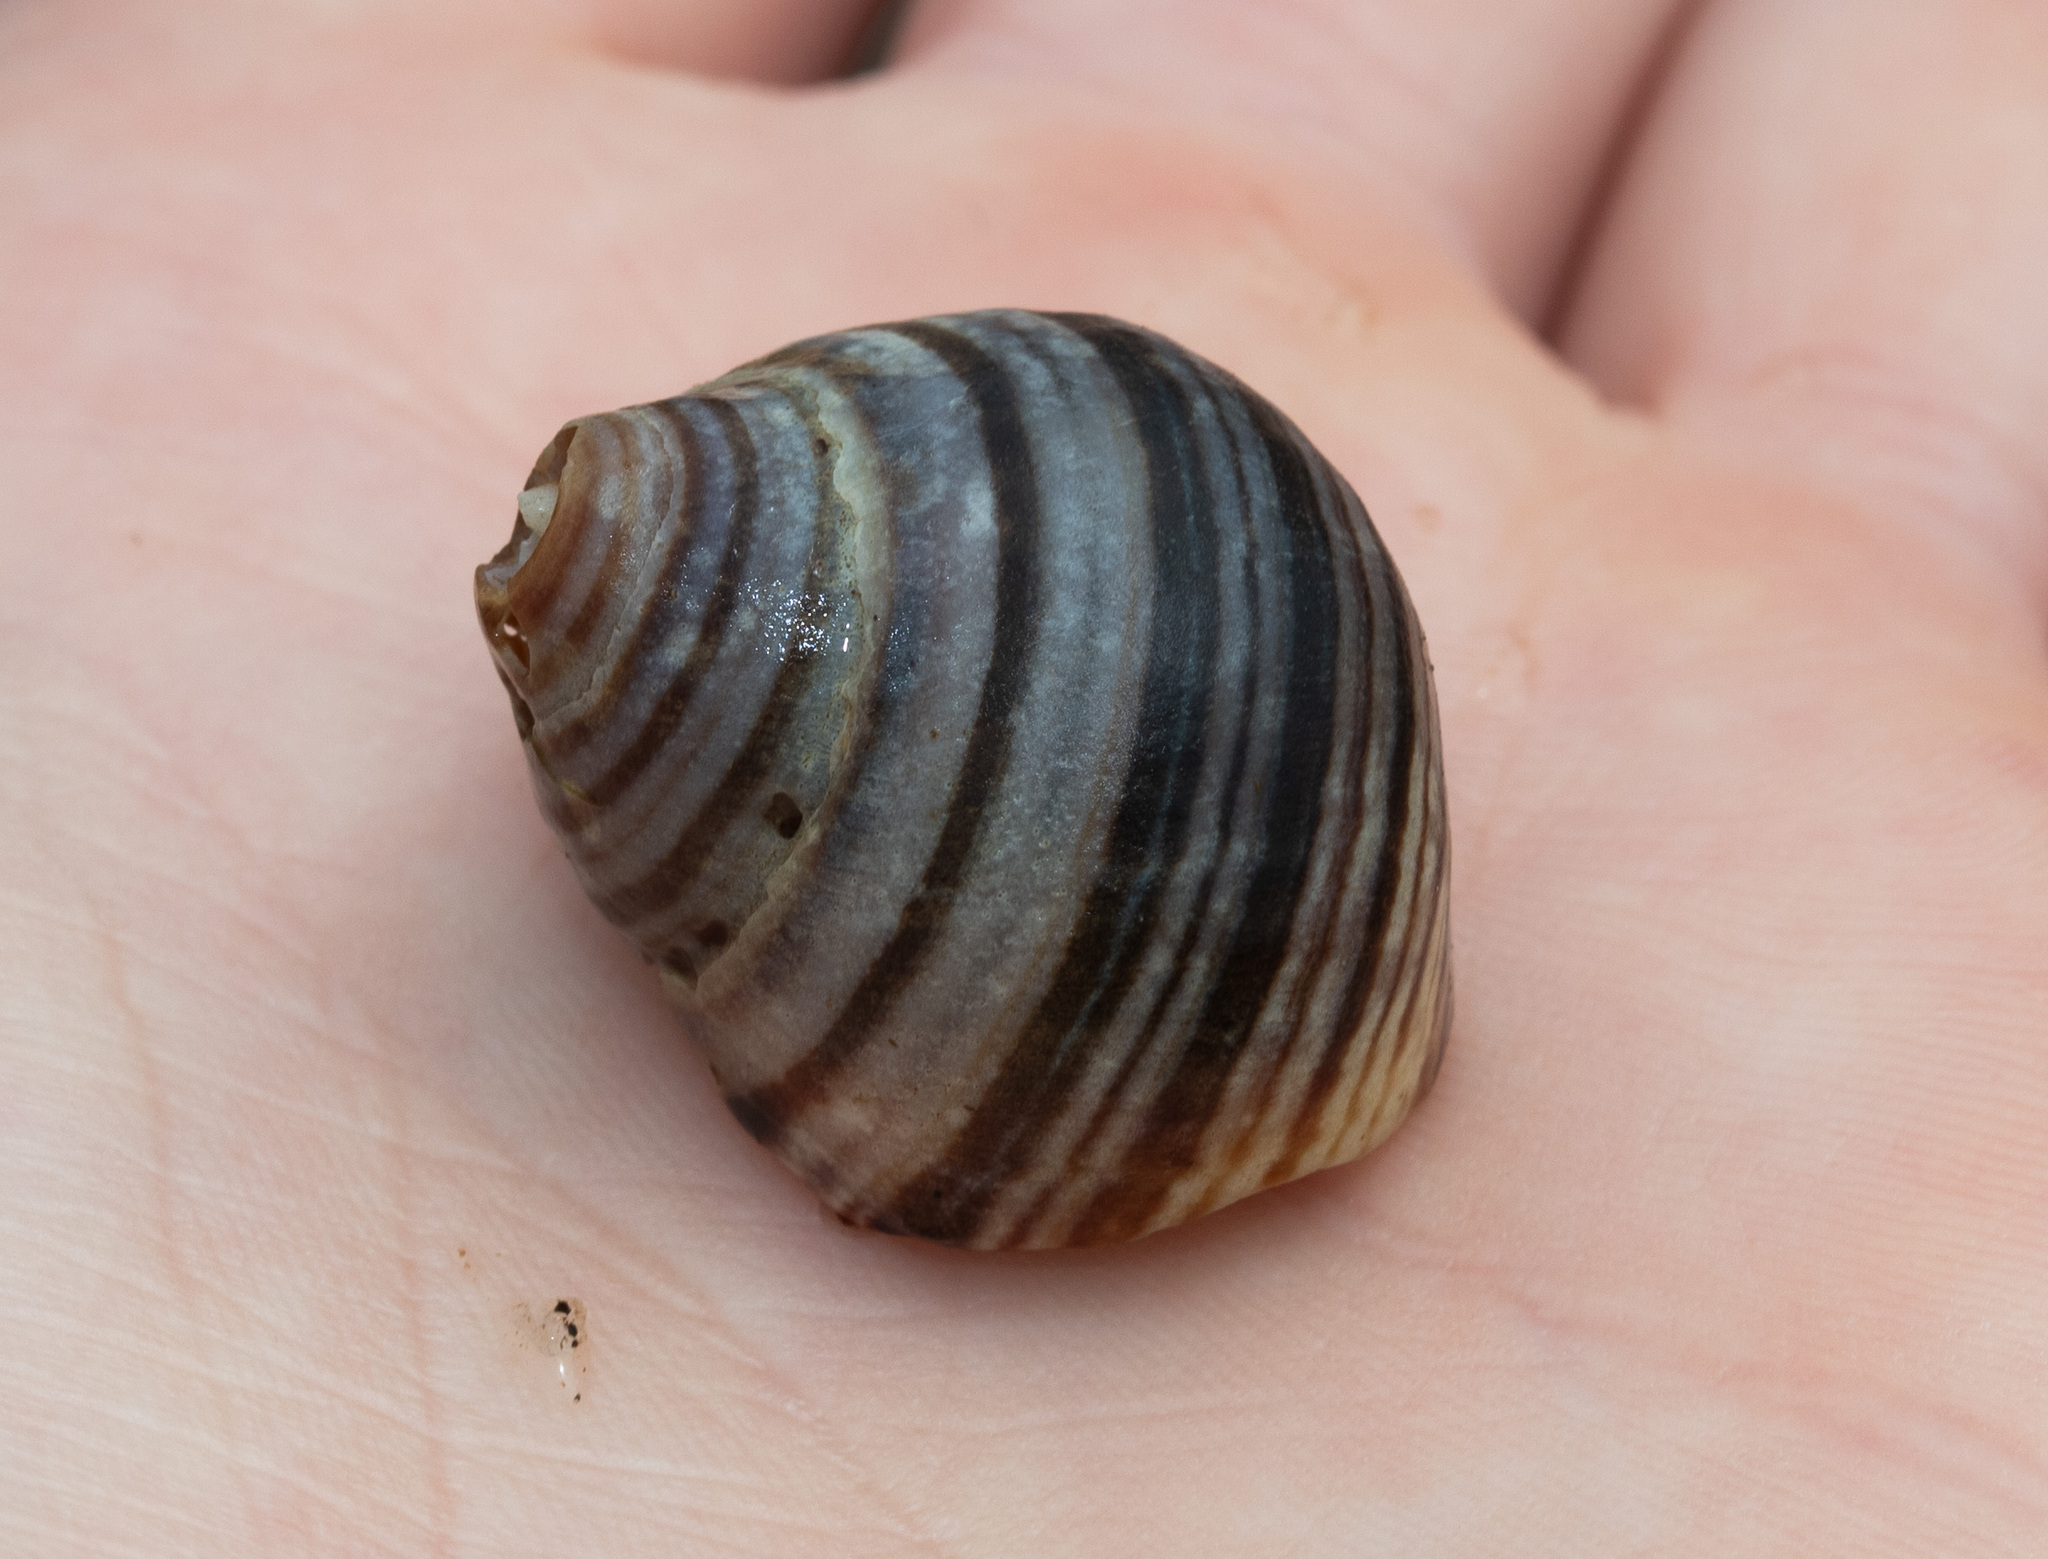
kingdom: Animalia
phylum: Mollusca
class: Gastropoda
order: Littorinimorpha
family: Littorinidae
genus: Littorina
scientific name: Littorina littorea
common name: Common periwinkle
